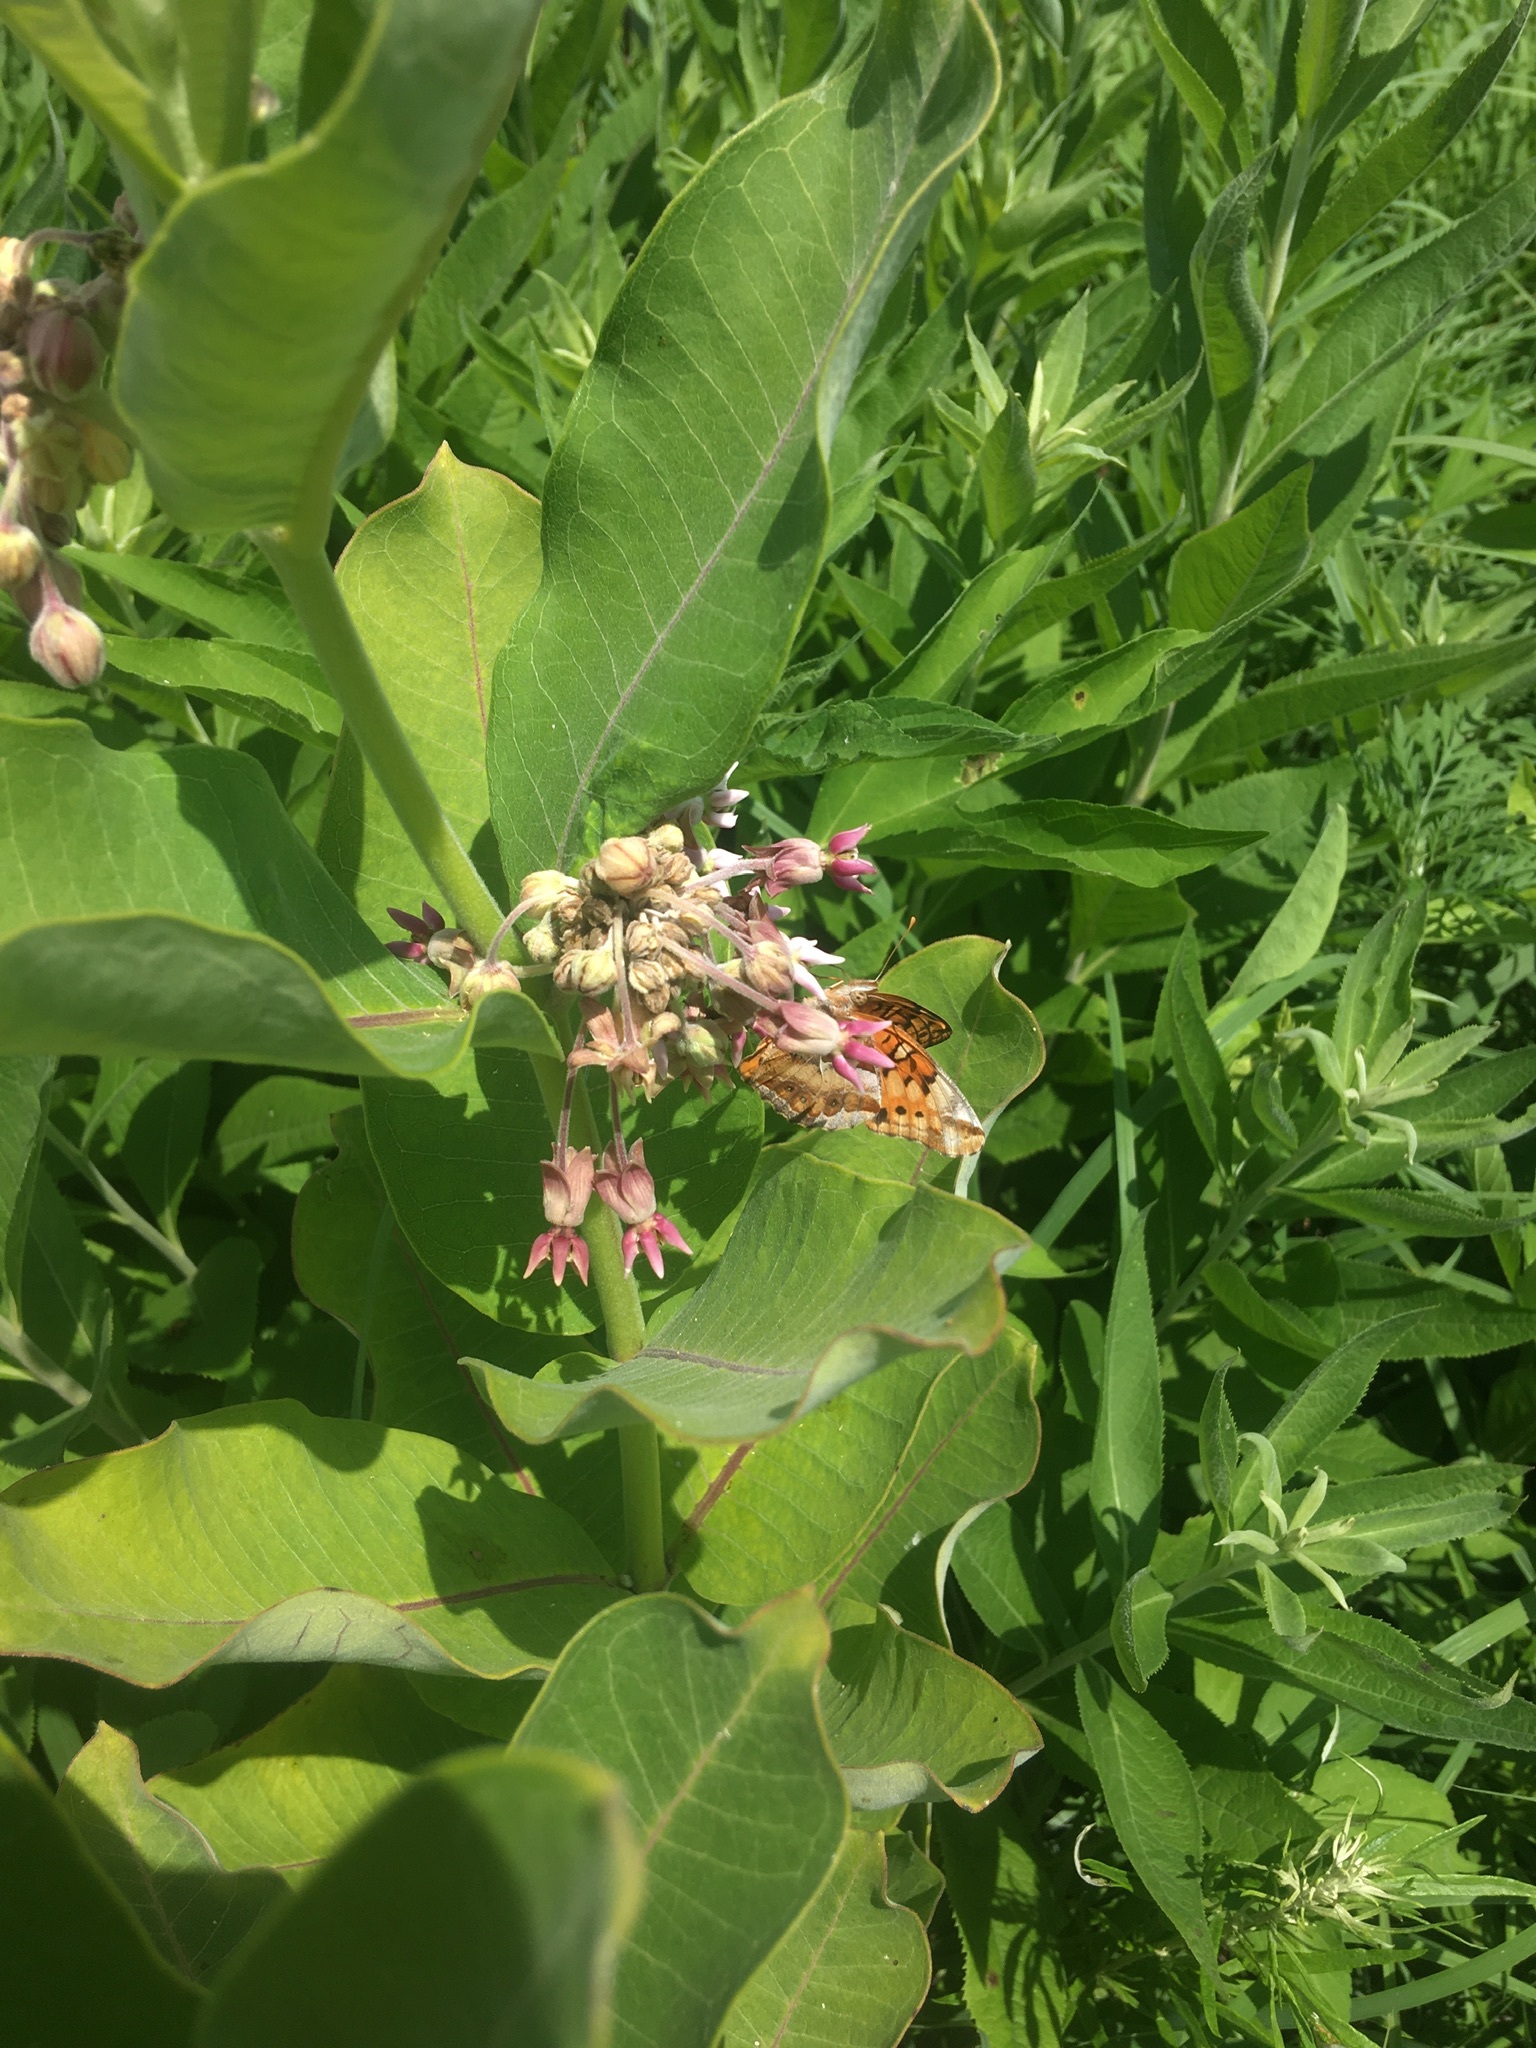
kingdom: Animalia
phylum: Arthropoda
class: Insecta
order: Lepidoptera
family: Nymphalidae
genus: Euptoieta
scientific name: Euptoieta claudia
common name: Variegated fritillary
